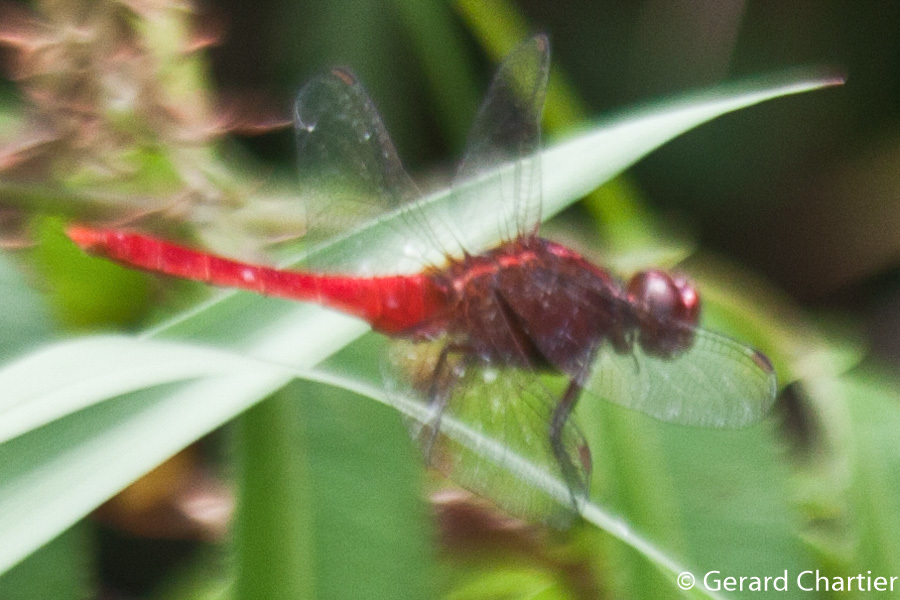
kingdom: Animalia
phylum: Arthropoda
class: Insecta
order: Odonata
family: Libellulidae
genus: Rhodothemis
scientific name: Rhodothemis rufa
